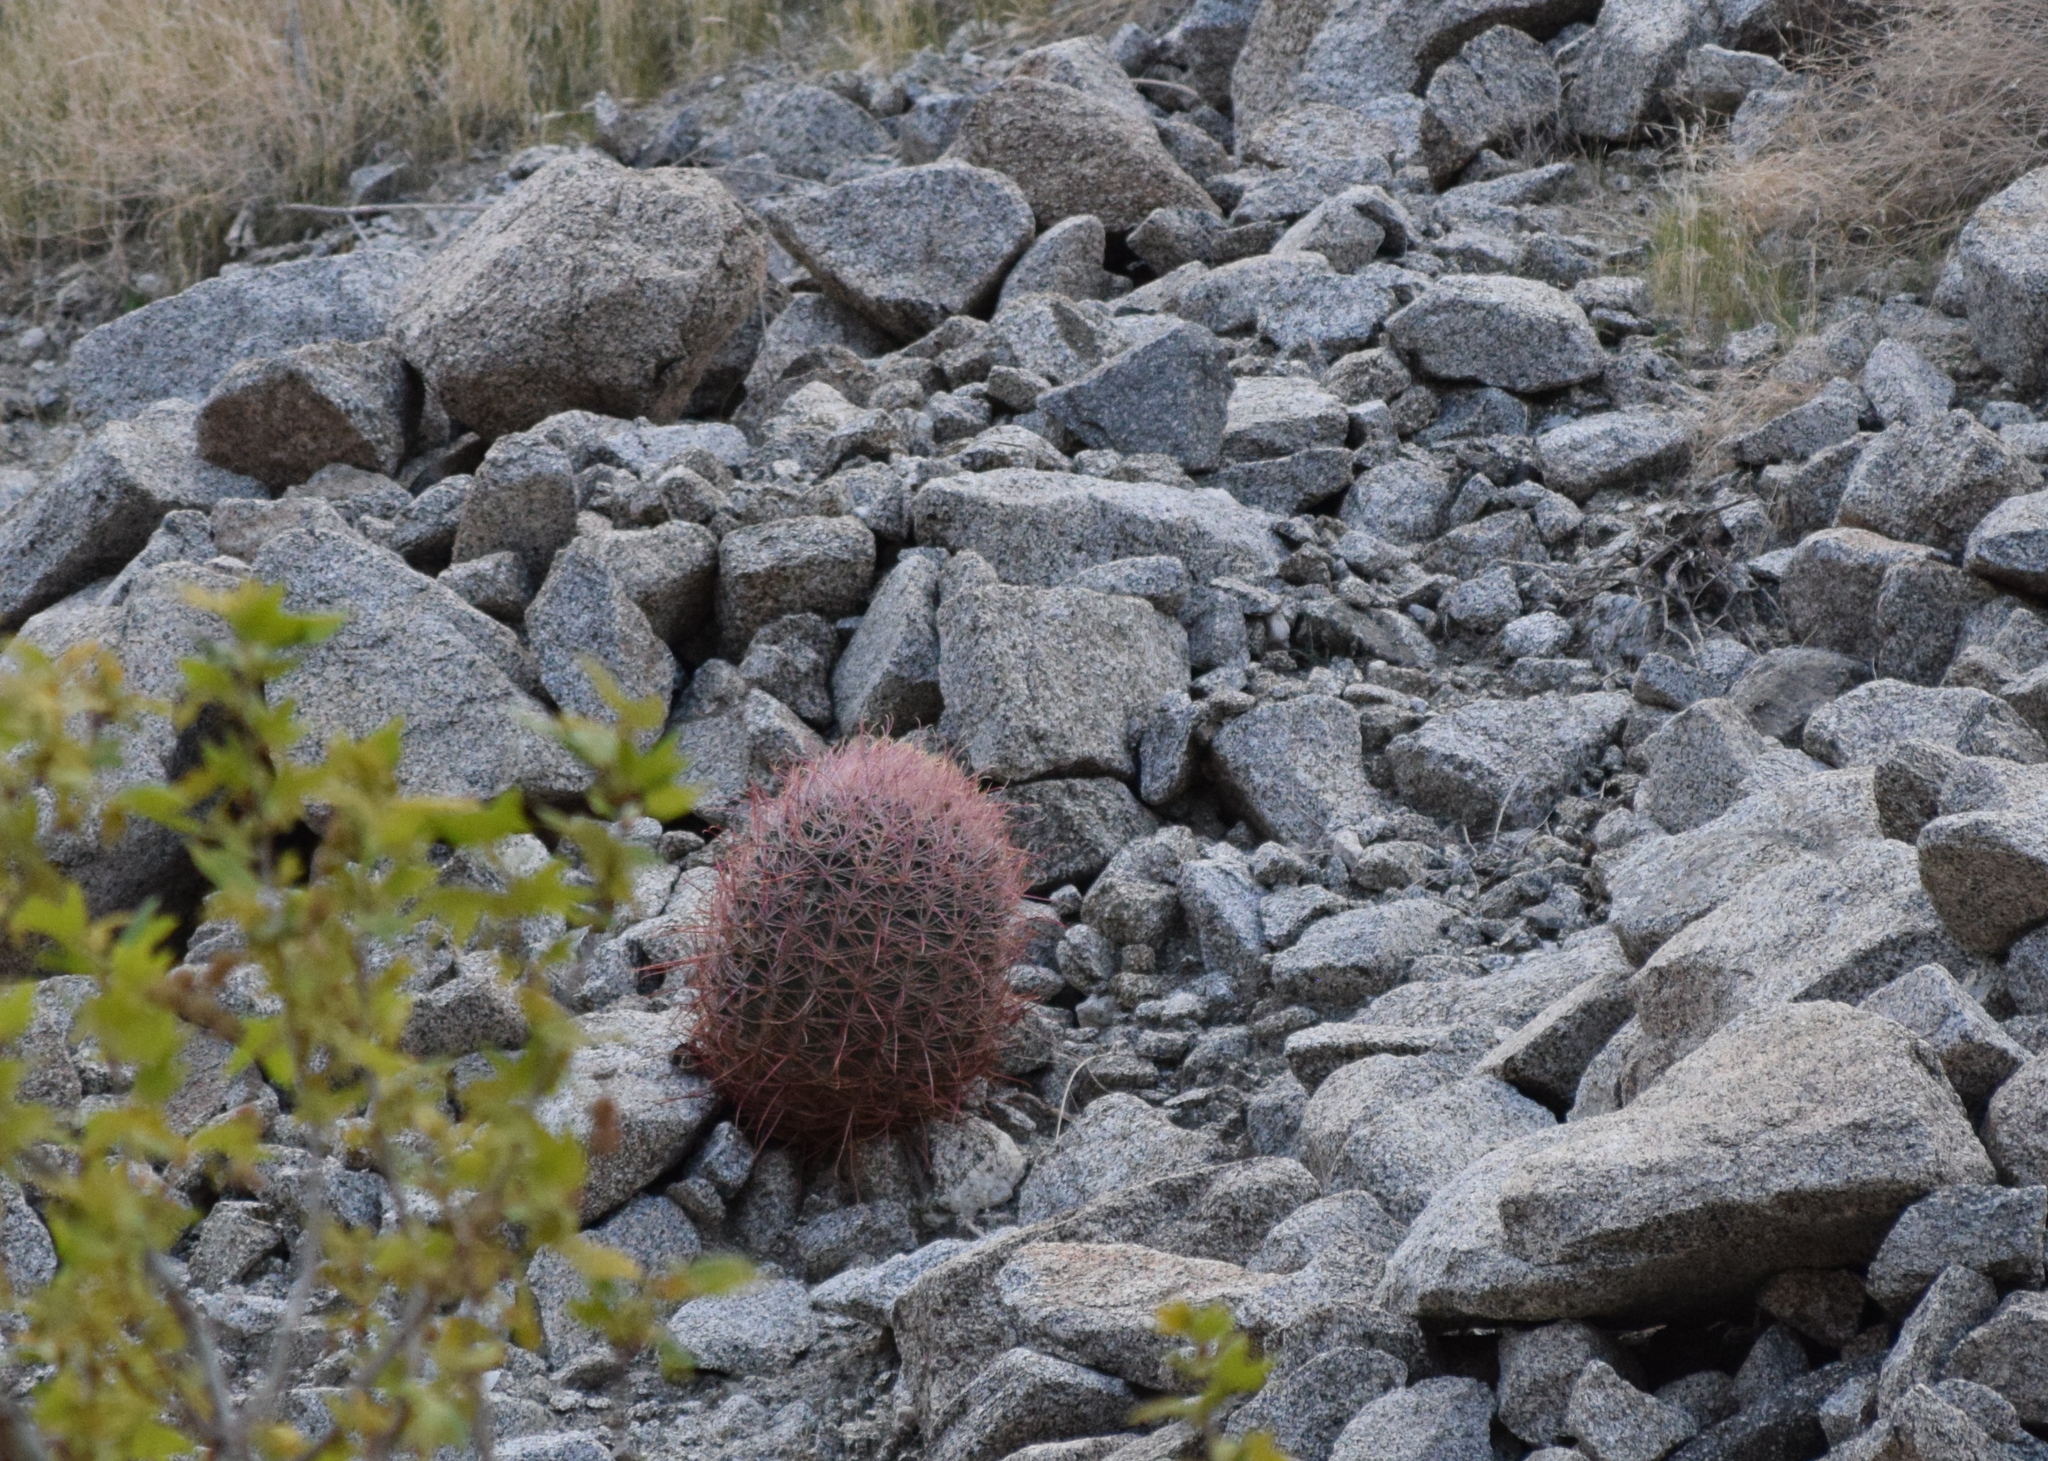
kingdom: Plantae
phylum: Tracheophyta
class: Magnoliopsida
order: Caryophyllales
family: Cactaceae
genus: Ferocactus
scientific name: Ferocactus cylindraceus
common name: California barrel cactus
